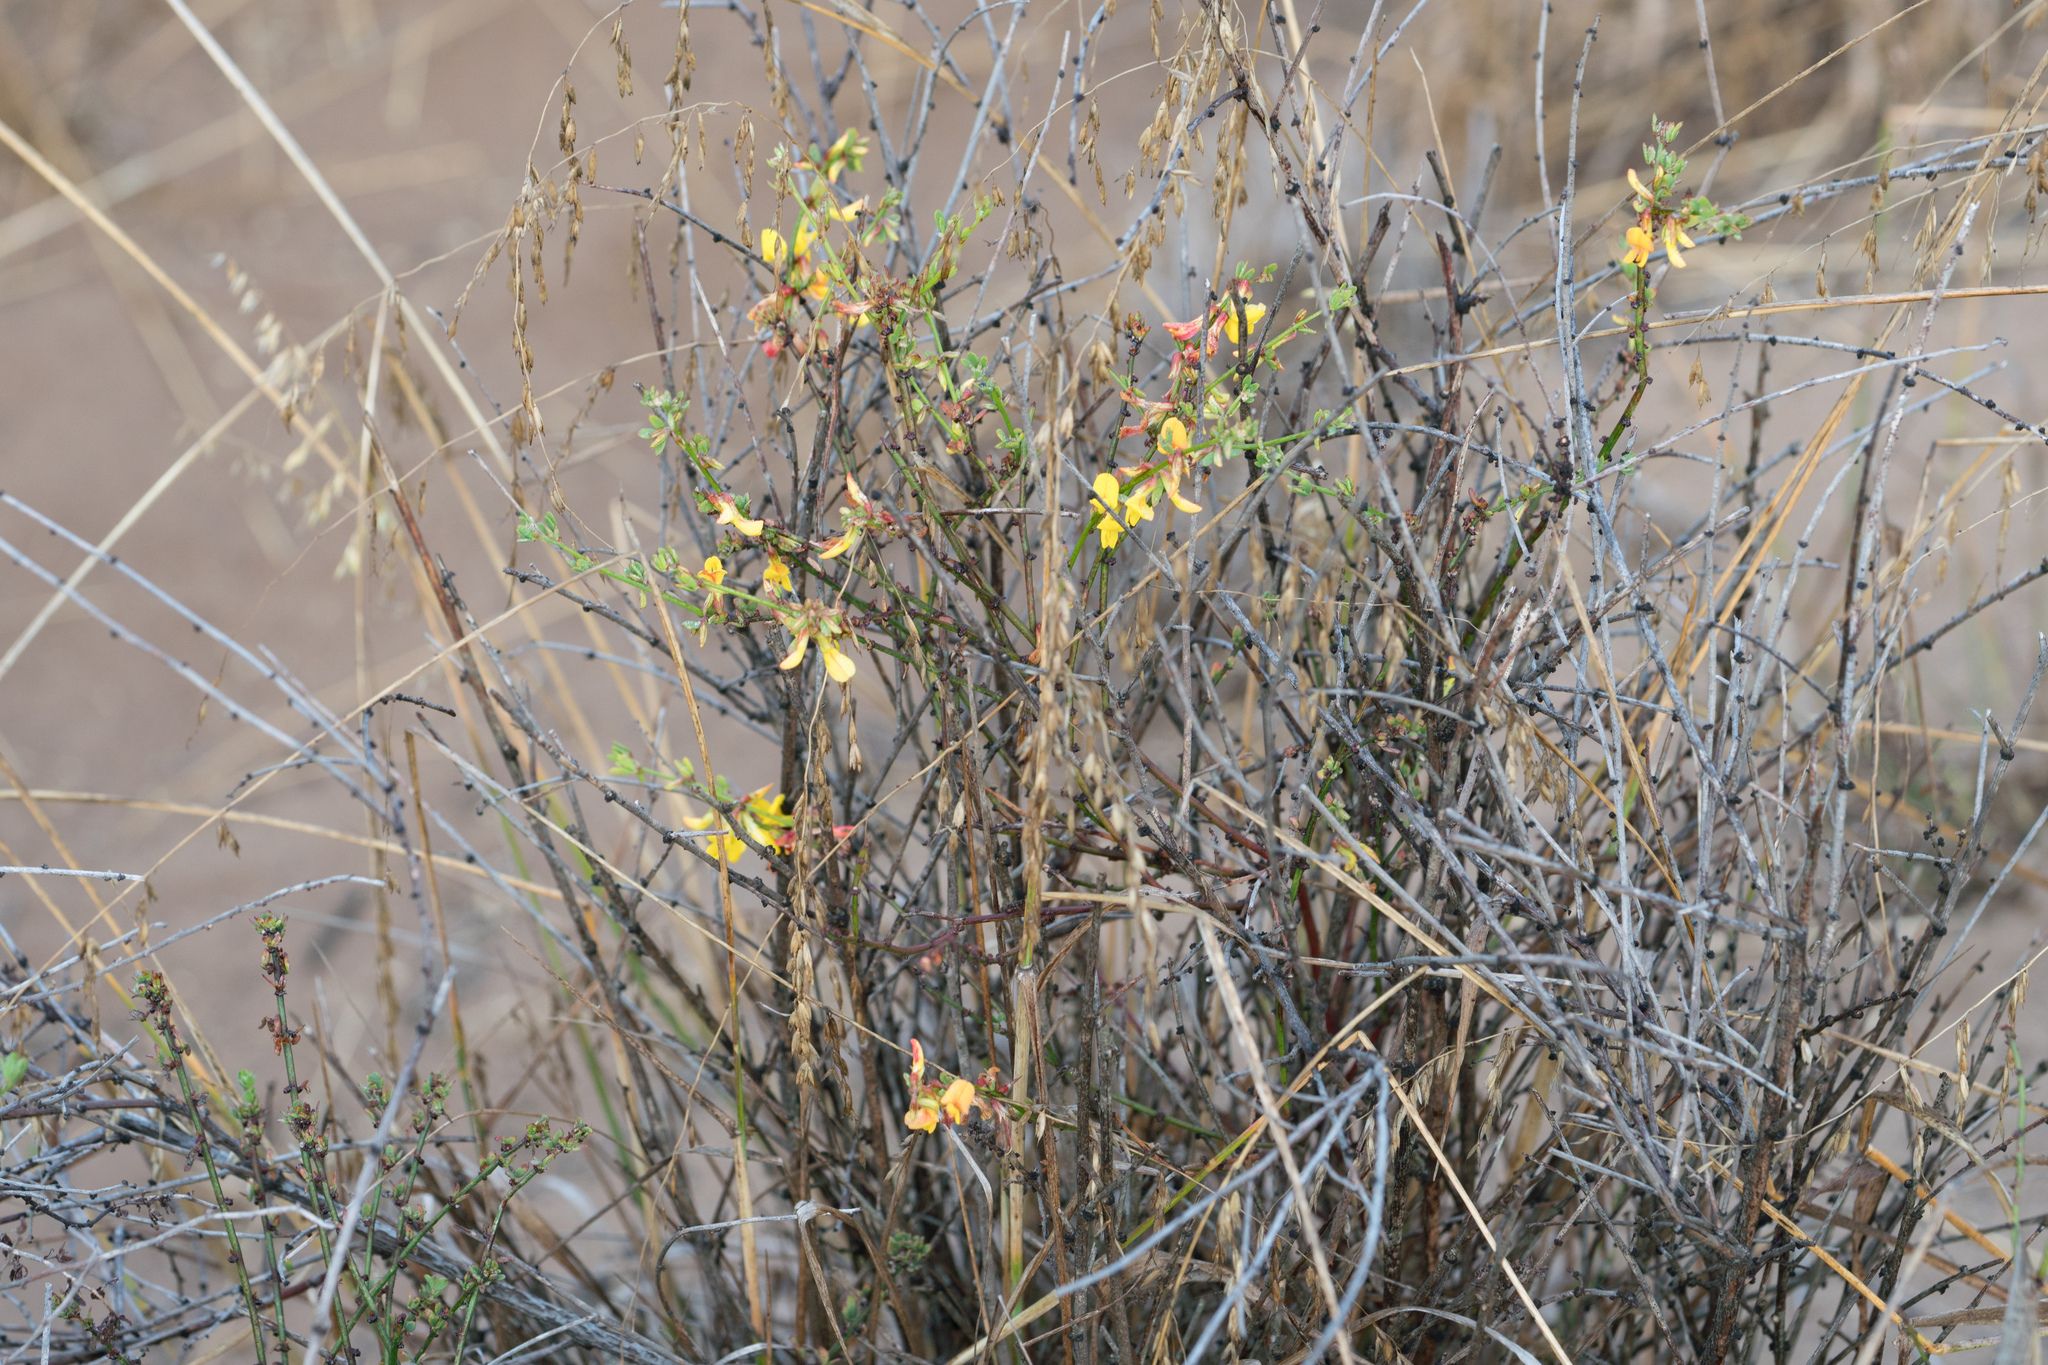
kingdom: Plantae
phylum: Tracheophyta
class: Magnoliopsida
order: Fabales
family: Fabaceae
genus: Acmispon
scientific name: Acmispon glaber
